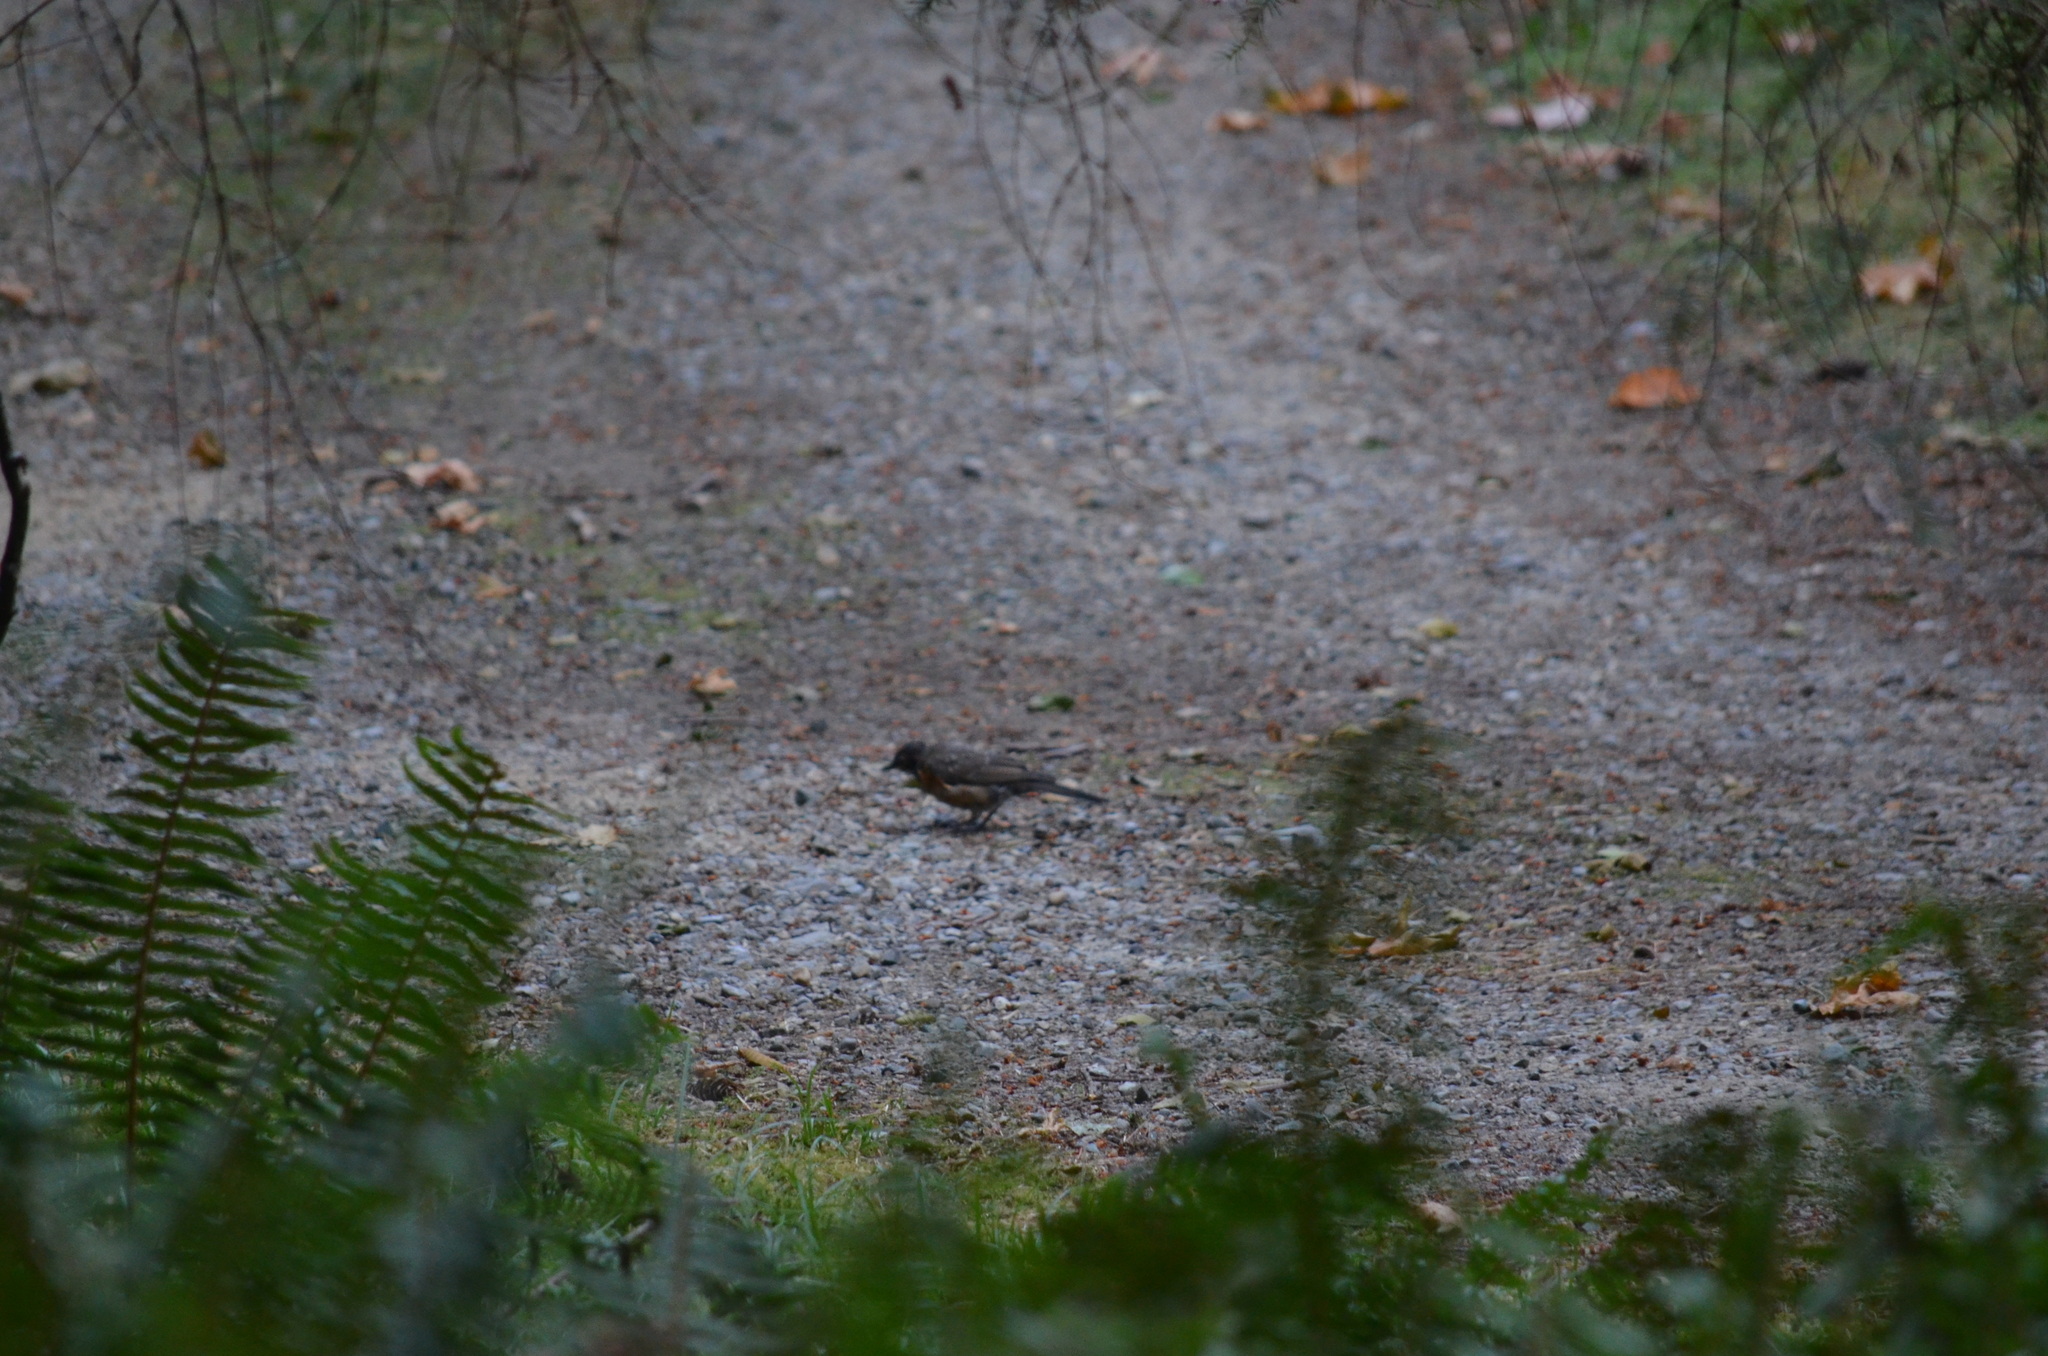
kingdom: Animalia
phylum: Chordata
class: Aves
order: Passeriformes
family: Turdidae
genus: Turdus
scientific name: Turdus migratorius
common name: American robin
